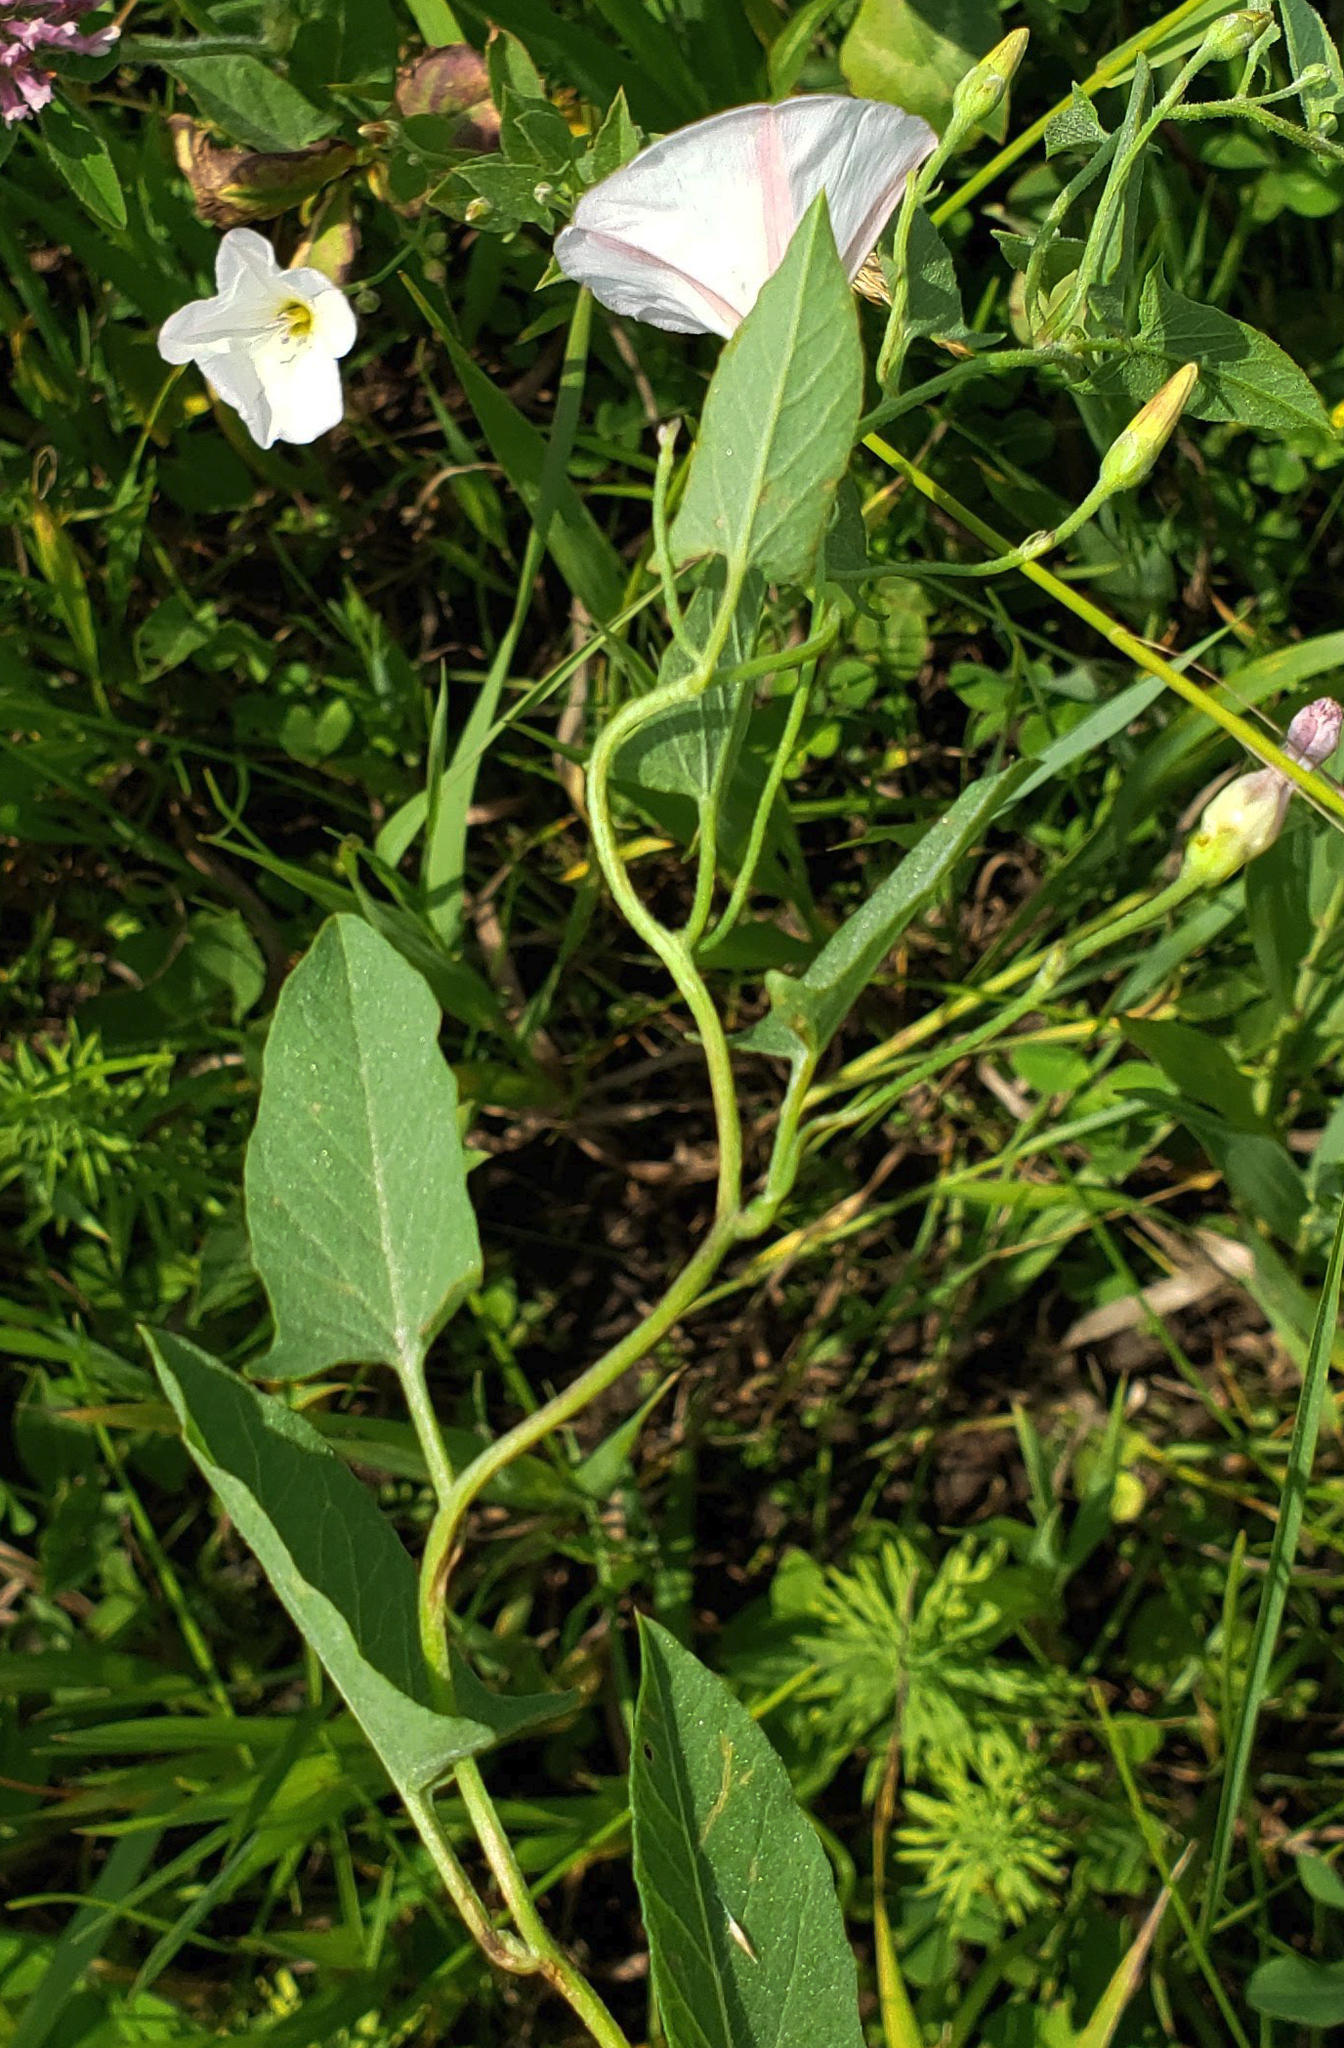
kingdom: Plantae
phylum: Tracheophyta
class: Magnoliopsida
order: Solanales
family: Convolvulaceae
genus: Convolvulus
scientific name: Convolvulus arvensis
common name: Field bindweed
